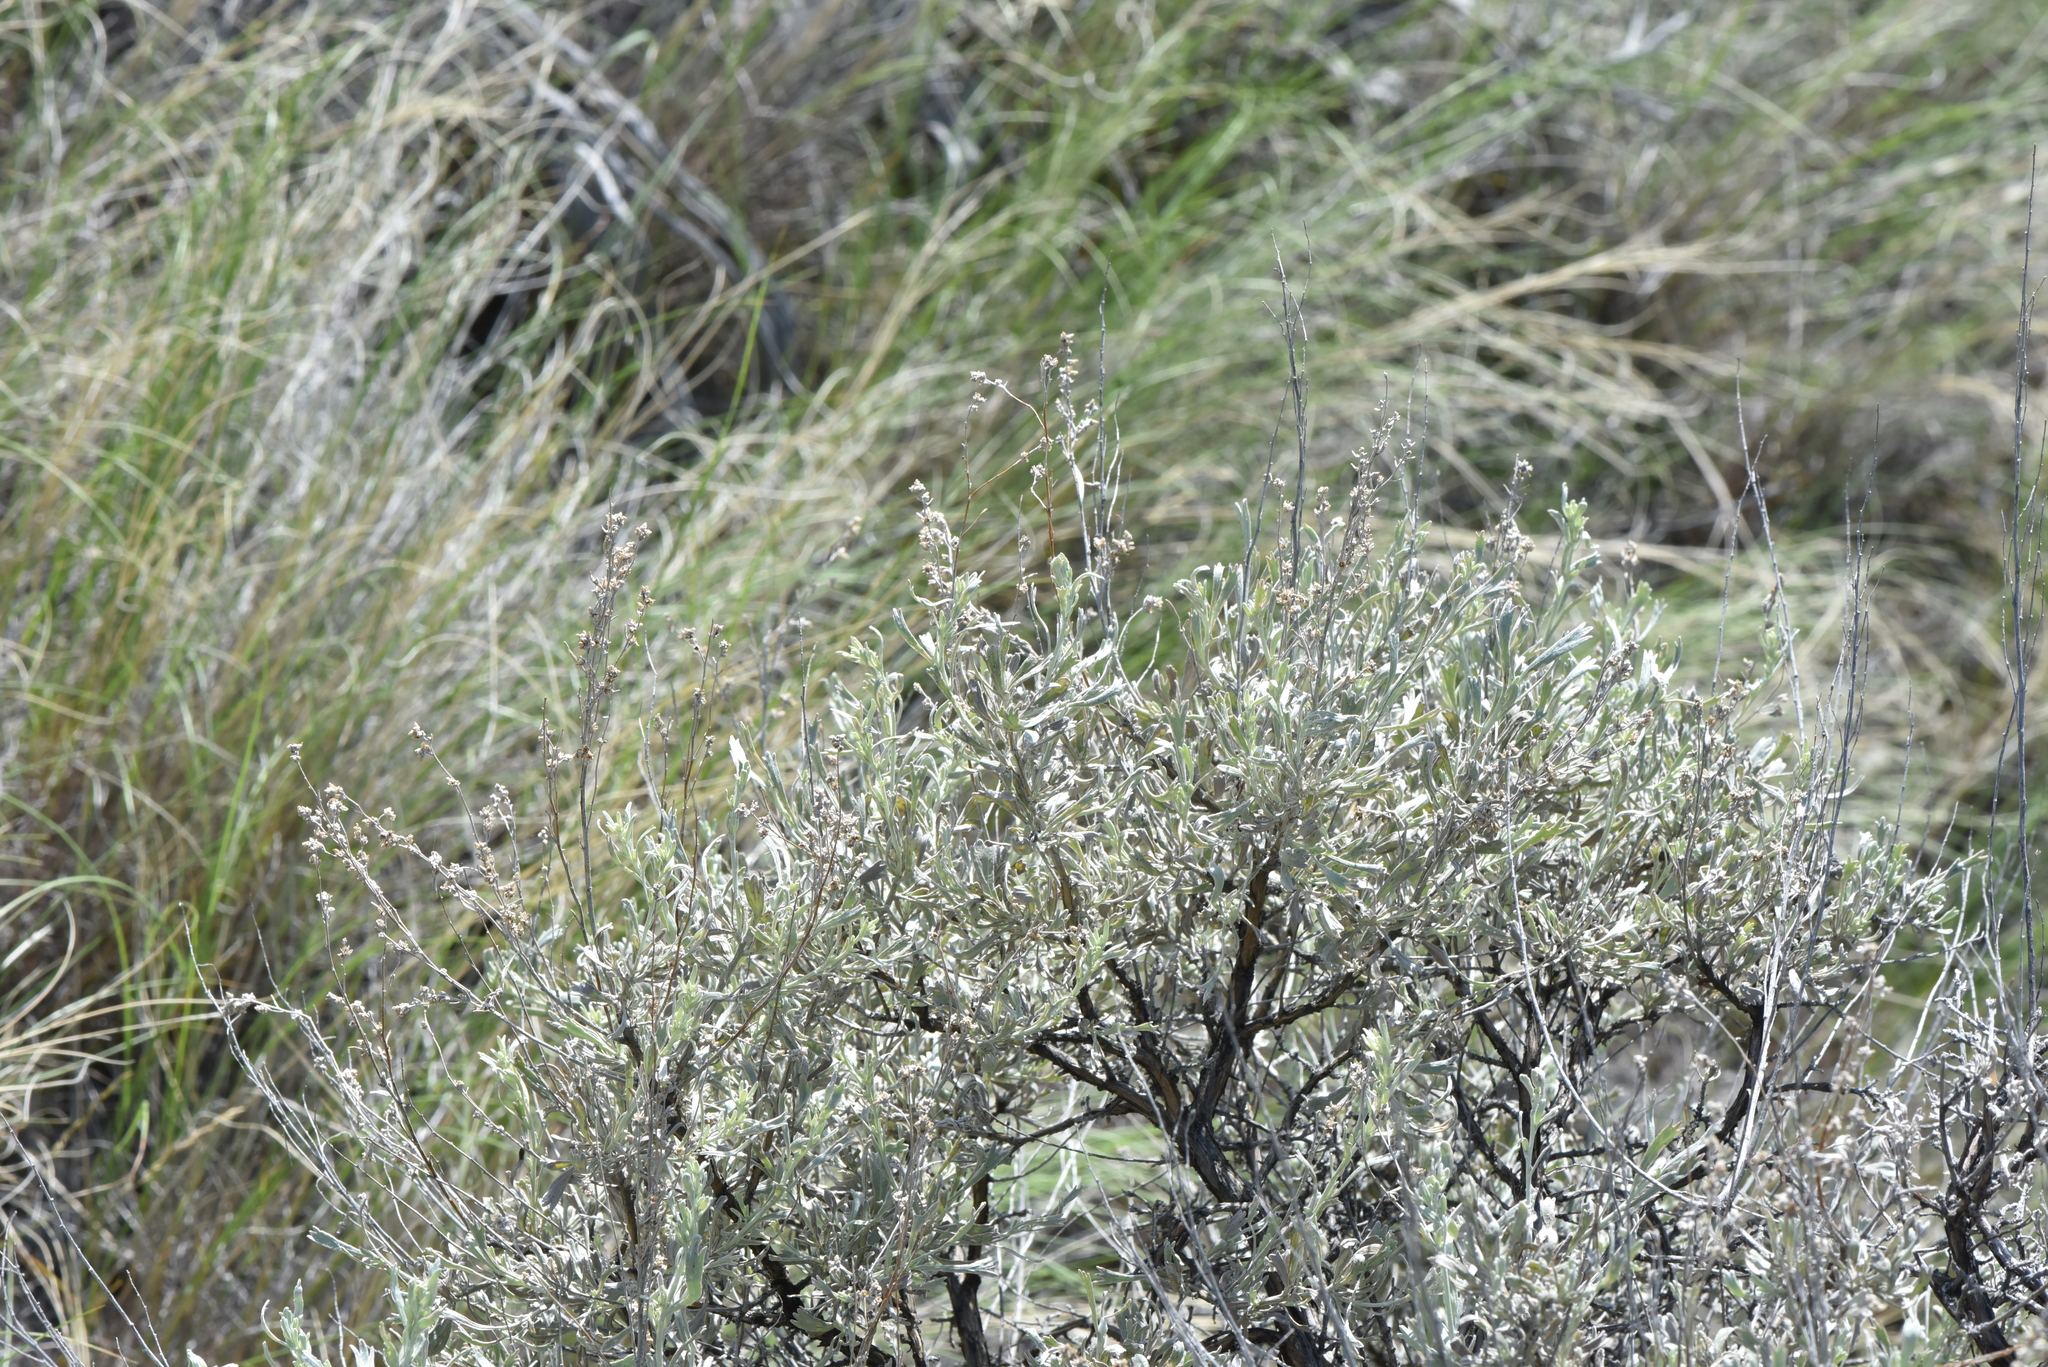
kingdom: Plantae
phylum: Tracheophyta
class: Magnoliopsida
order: Asterales
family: Asteraceae
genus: Artemisia
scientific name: Artemisia tridentata
